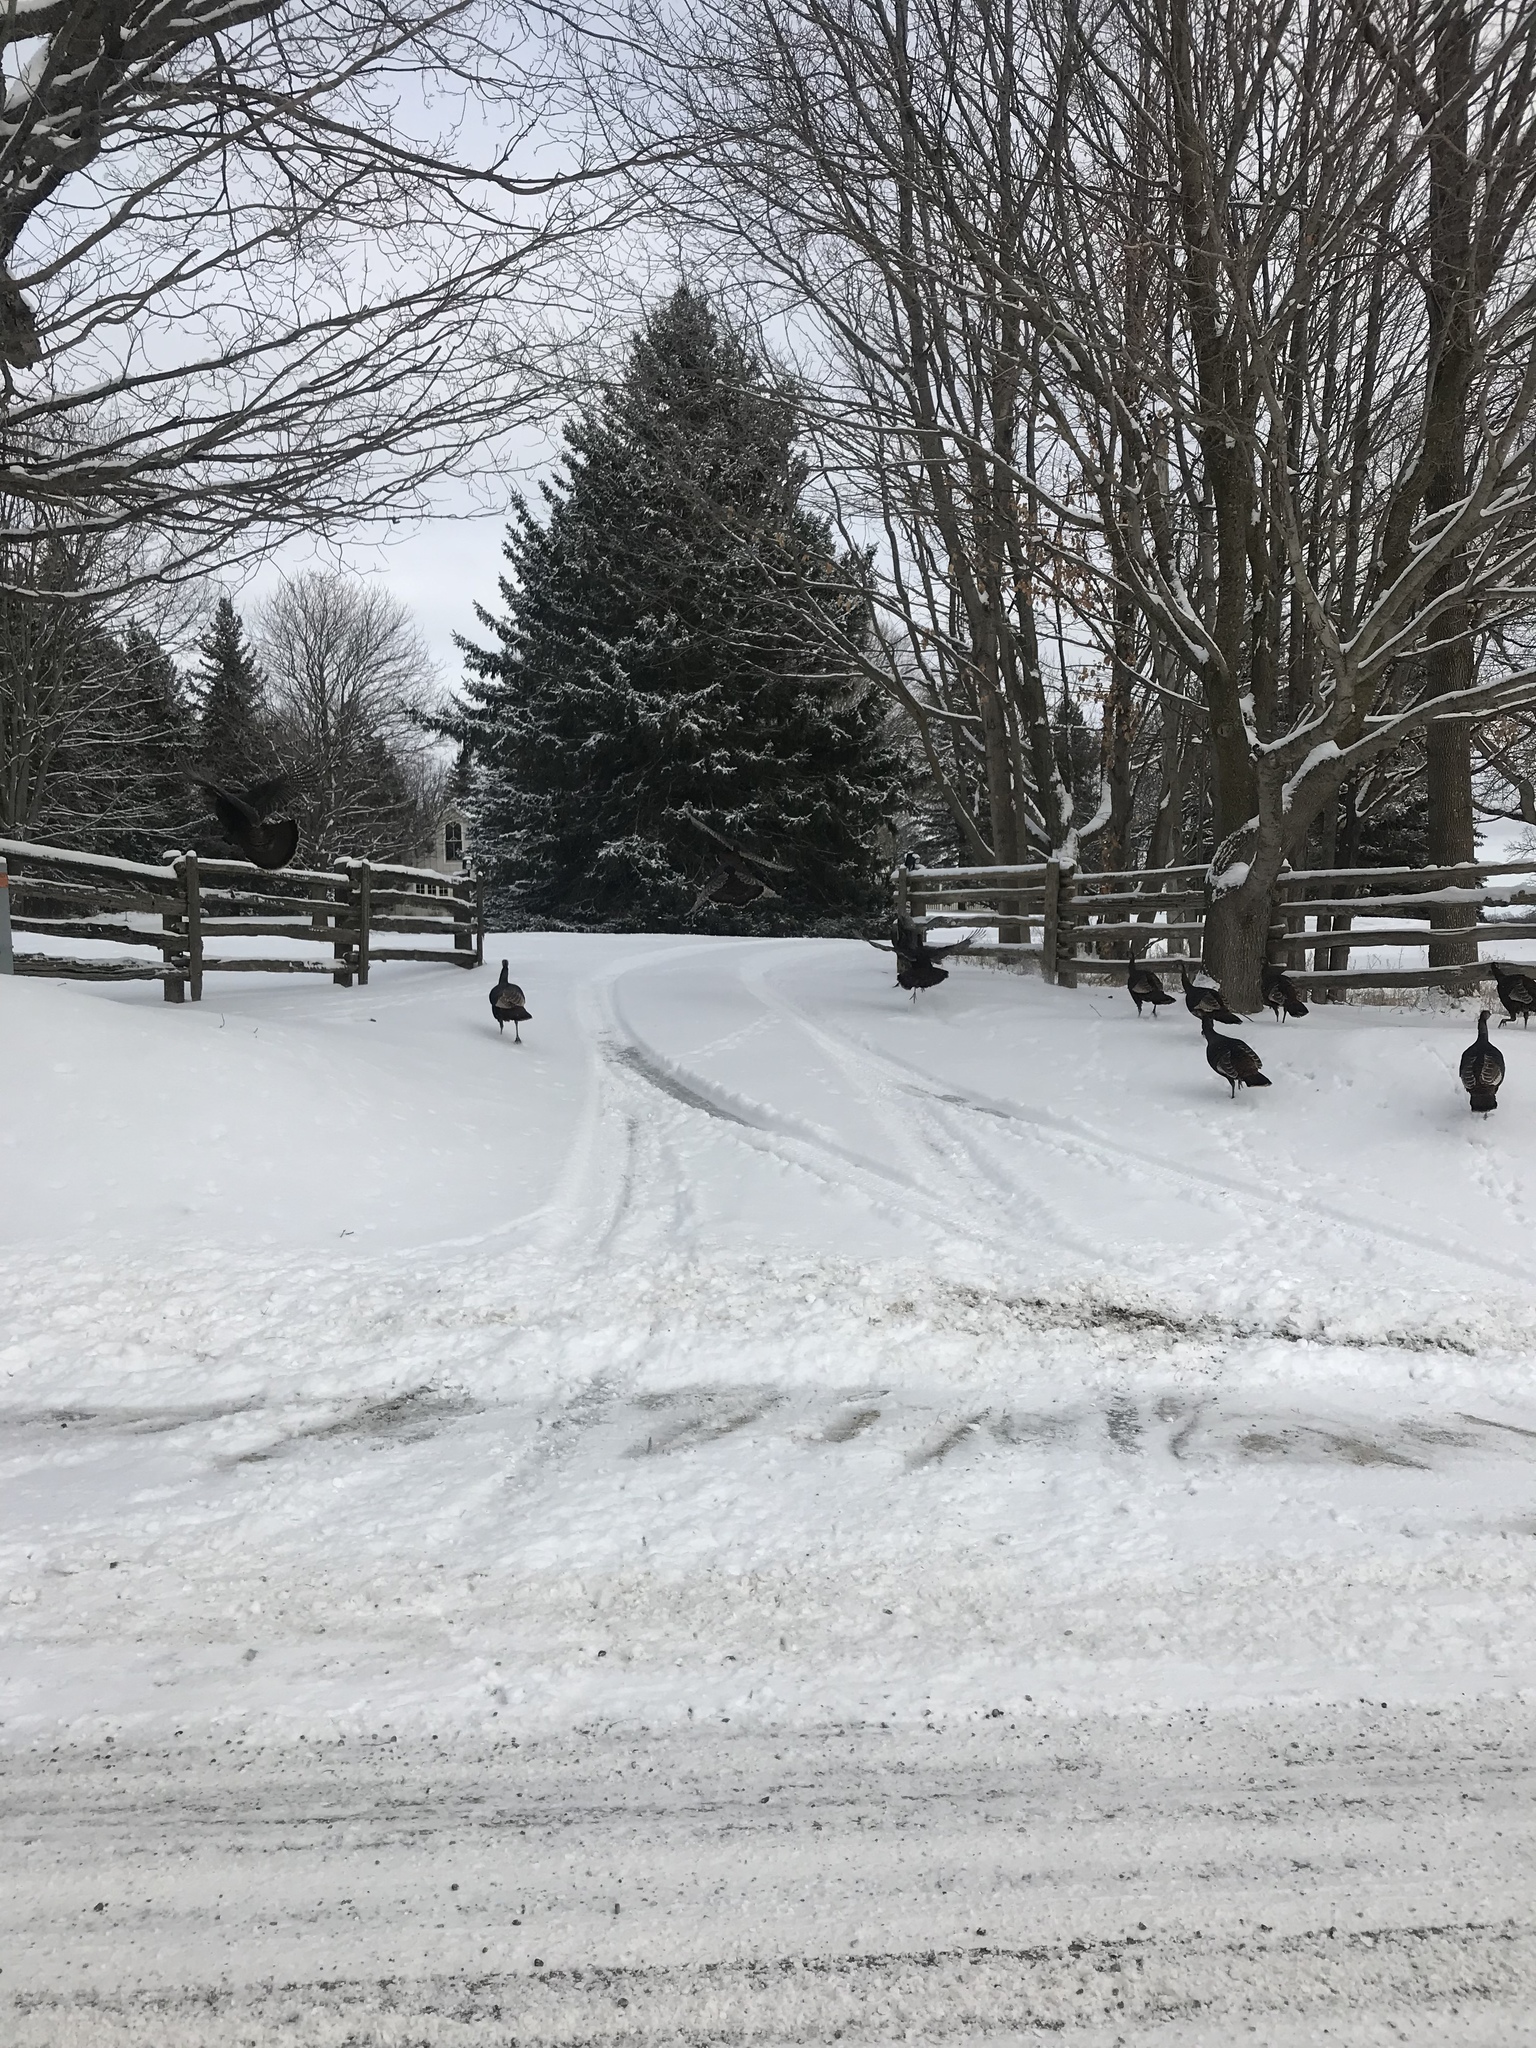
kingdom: Animalia
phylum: Chordata
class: Aves
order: Galliformes
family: Phasianidae
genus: Meleagris
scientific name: Meleagris gallopavo
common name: Wild turkey
